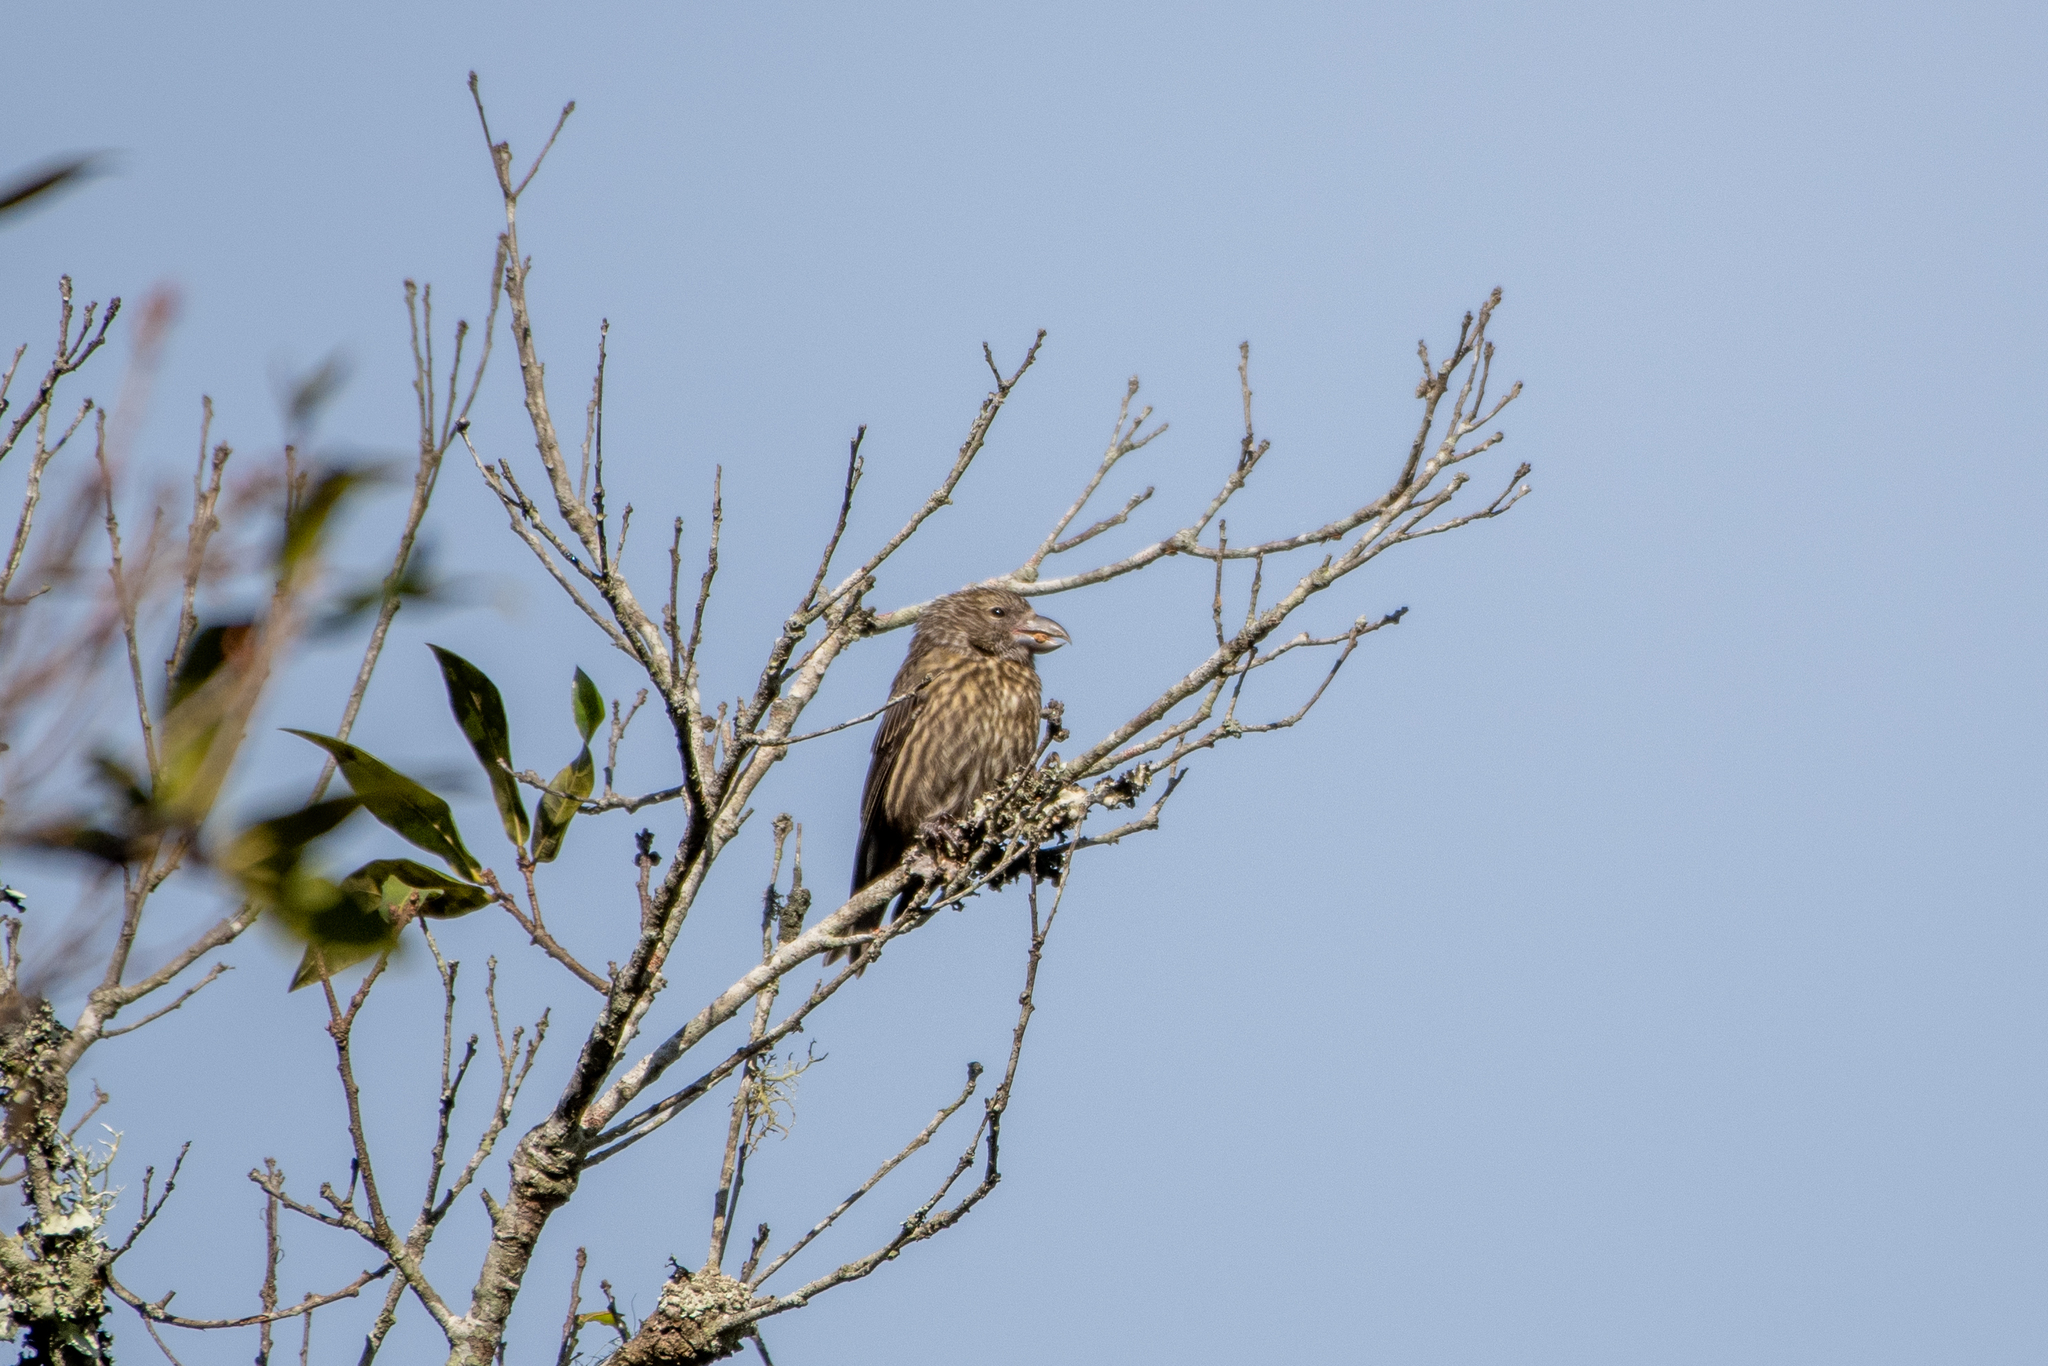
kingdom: Animalia
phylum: Chordata
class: Aves
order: Passeriformes
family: Fringillidae
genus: Loxia
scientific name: Loxia curvirostra
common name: Red crossbill
